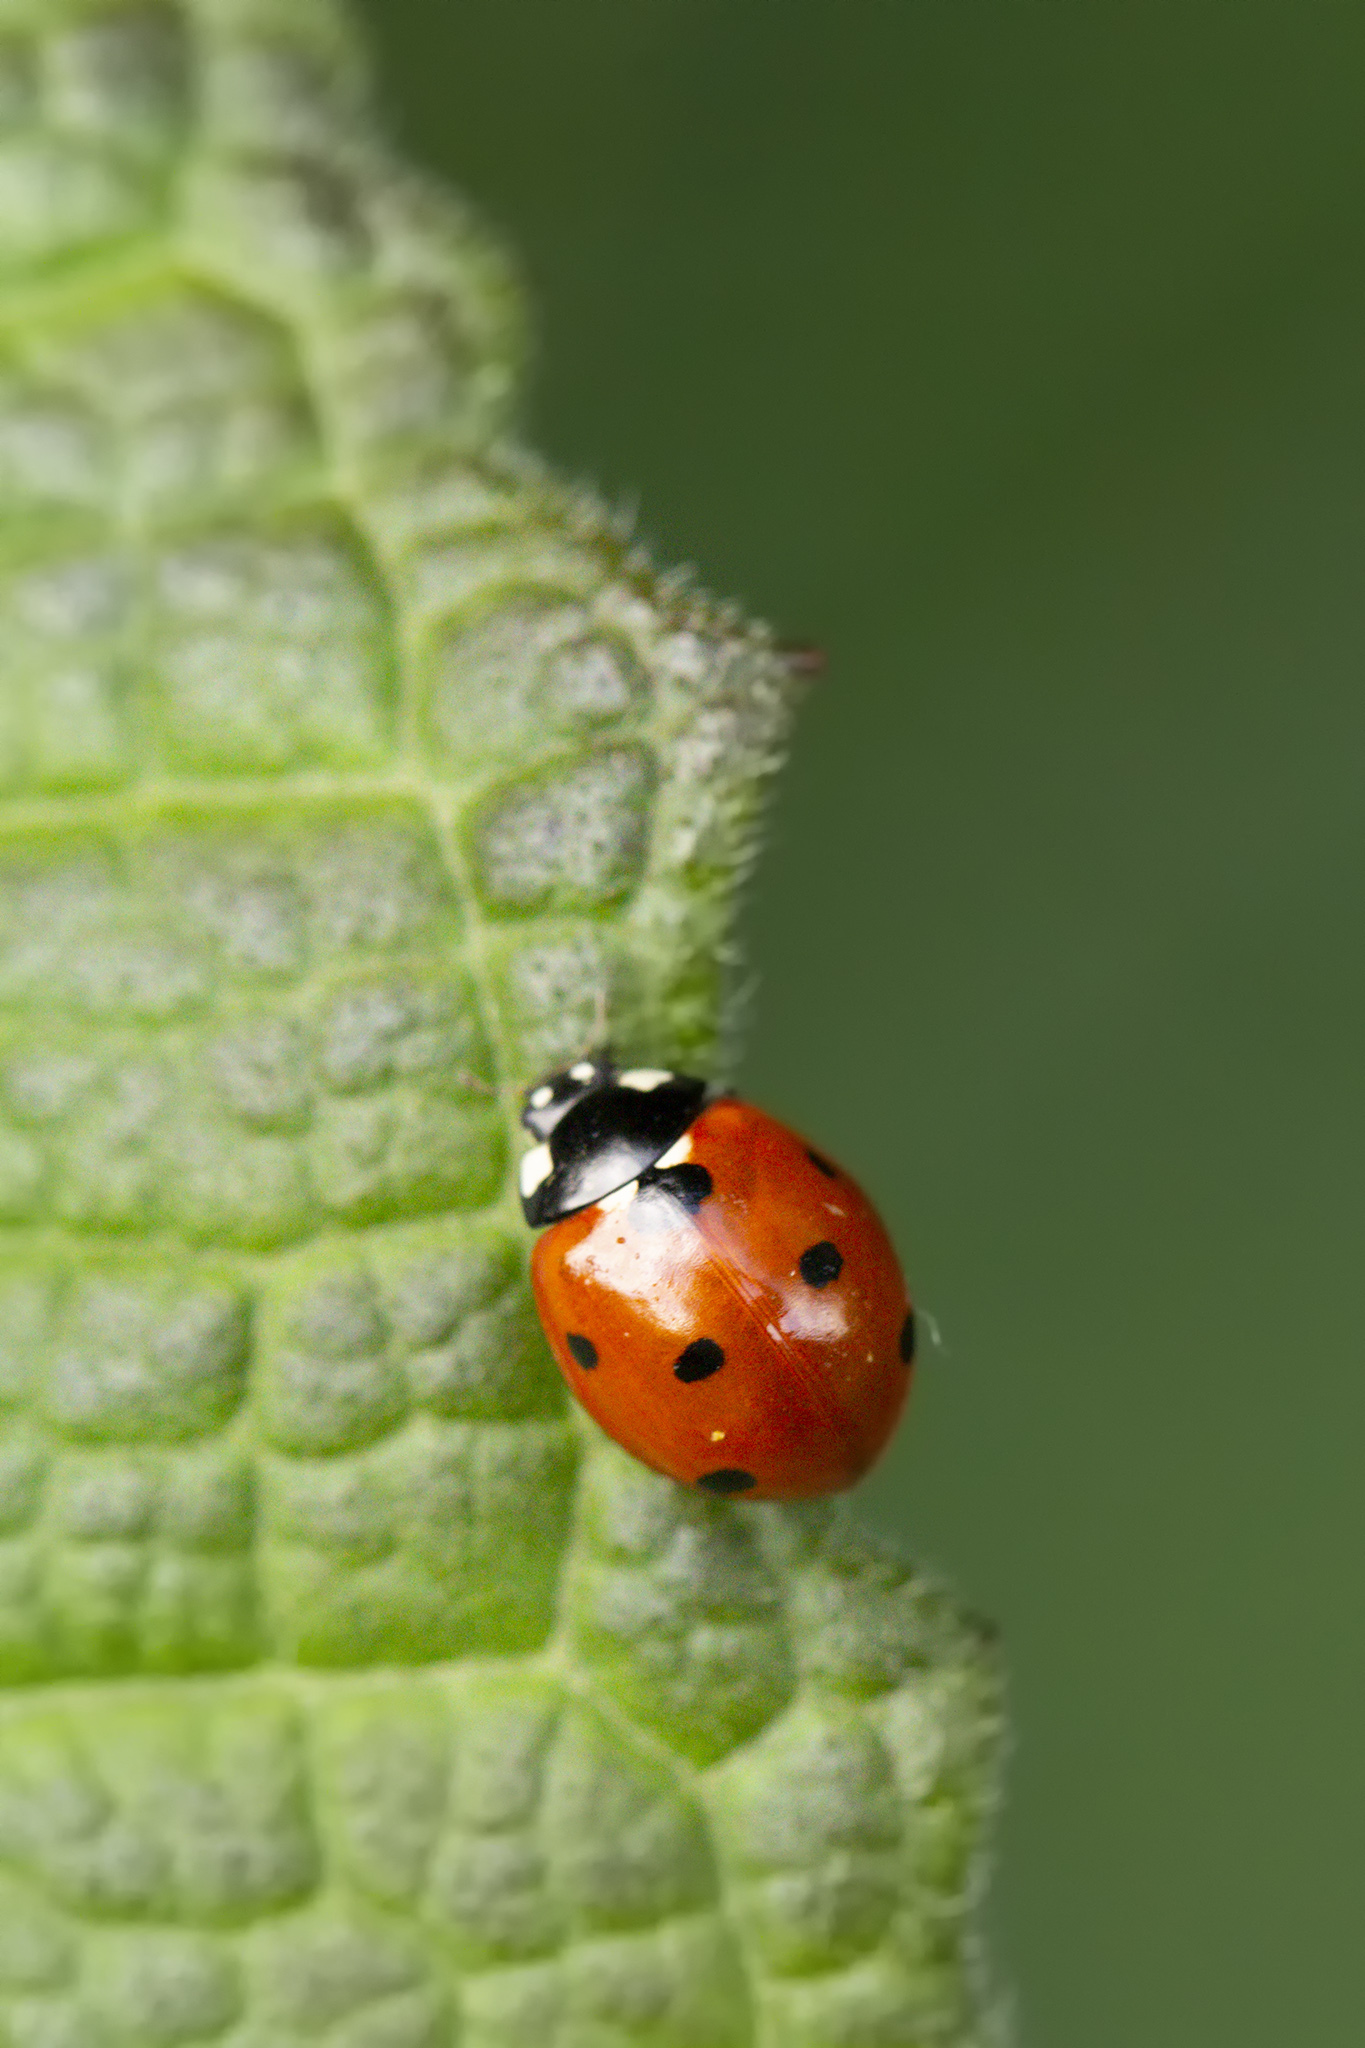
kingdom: Animalia
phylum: Arthropoda
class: Insecta
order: Coleoptera
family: Coccinellidae
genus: Coccinella
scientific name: Coccinella septempunctata
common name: Sevenspotted lady beetle
